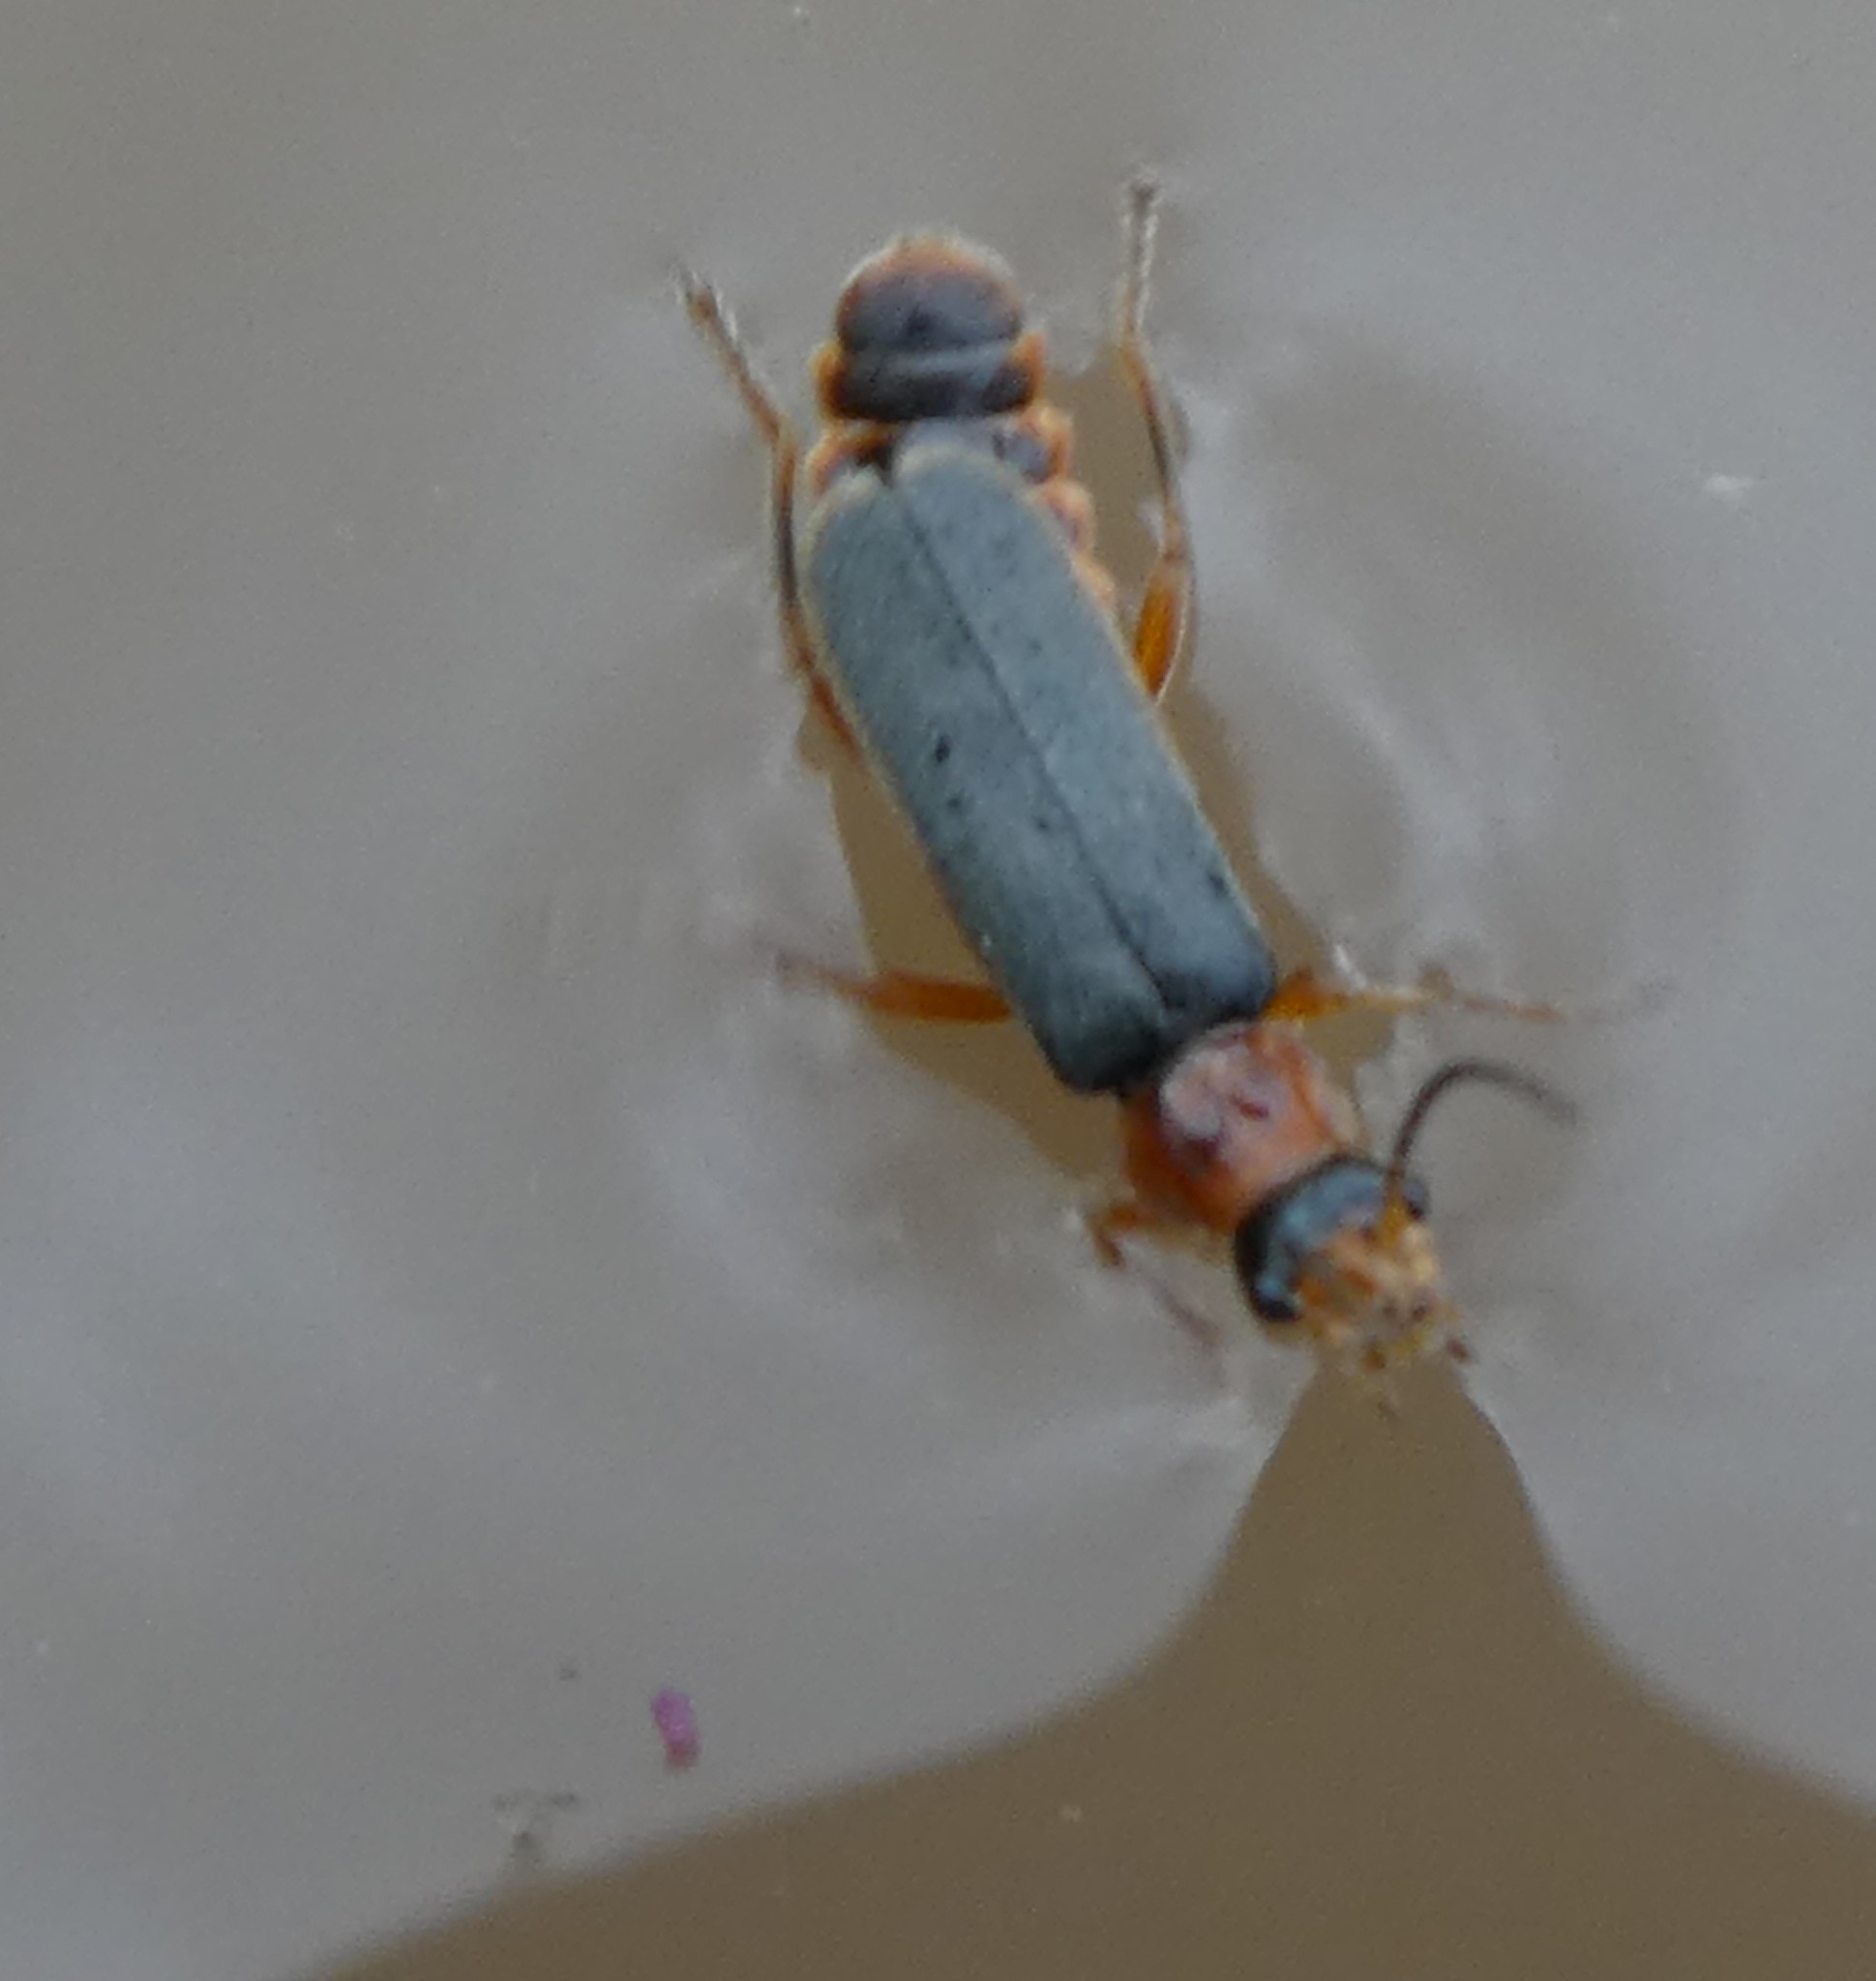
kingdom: Animalia
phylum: Arthropoda
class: Insecta
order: Coleoptera
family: Cantharidae
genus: Cantharis
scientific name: Cantharis lateralis
